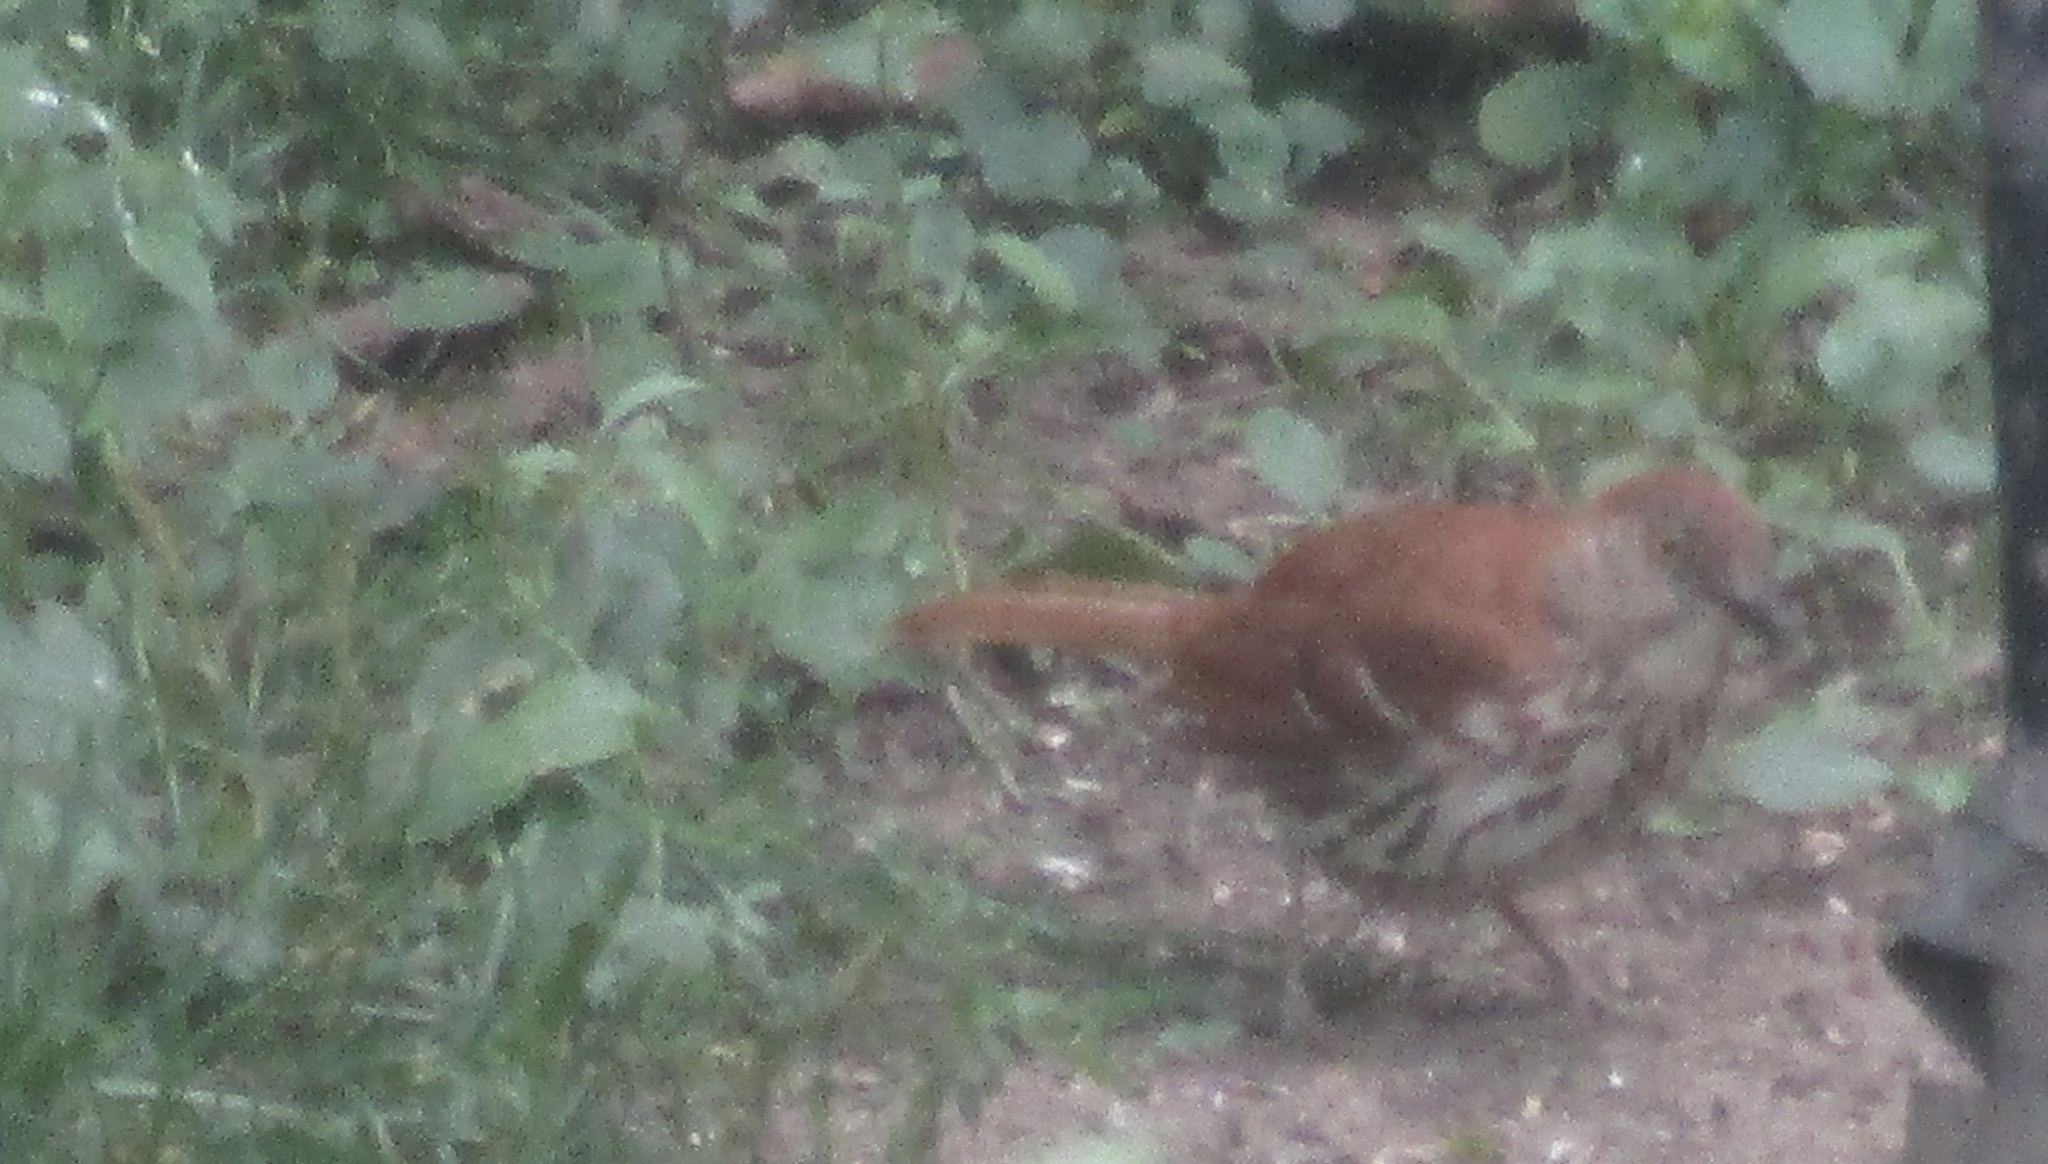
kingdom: Animalia
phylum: Chordata
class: Aves
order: Passeriformes
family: Mimidae
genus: Toxostoma
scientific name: Toxostoma rufum
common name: Brown thrasher
